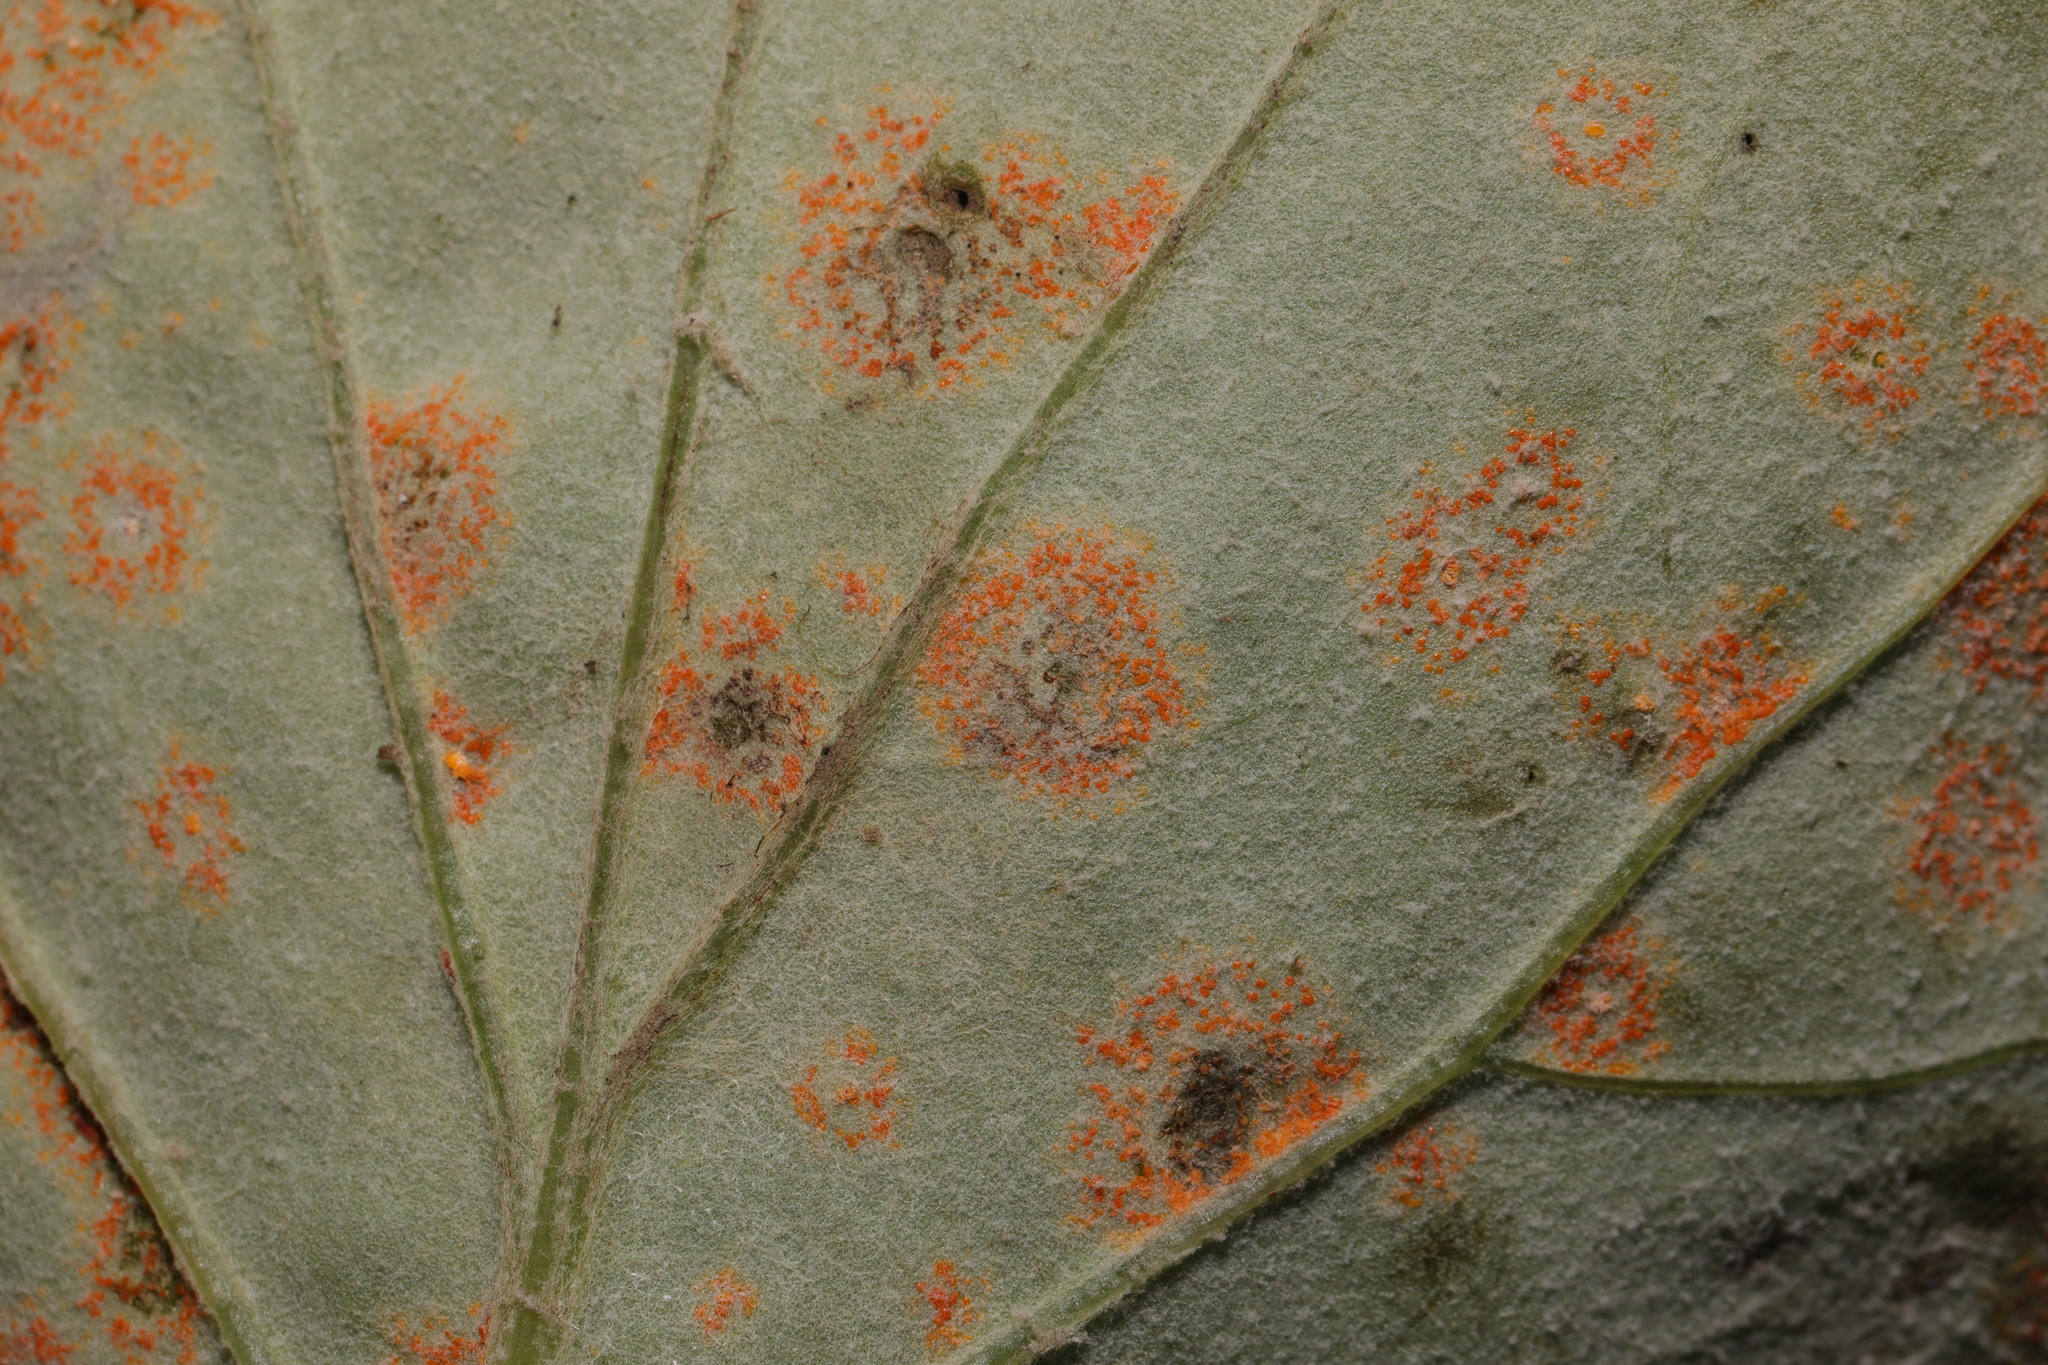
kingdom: Fungi
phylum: Basidiomycota
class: Pucciniomycetes
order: Pucciniales
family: Coleosporiaceae
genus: Coleosporium
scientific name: Coleosporium tussilaginis
